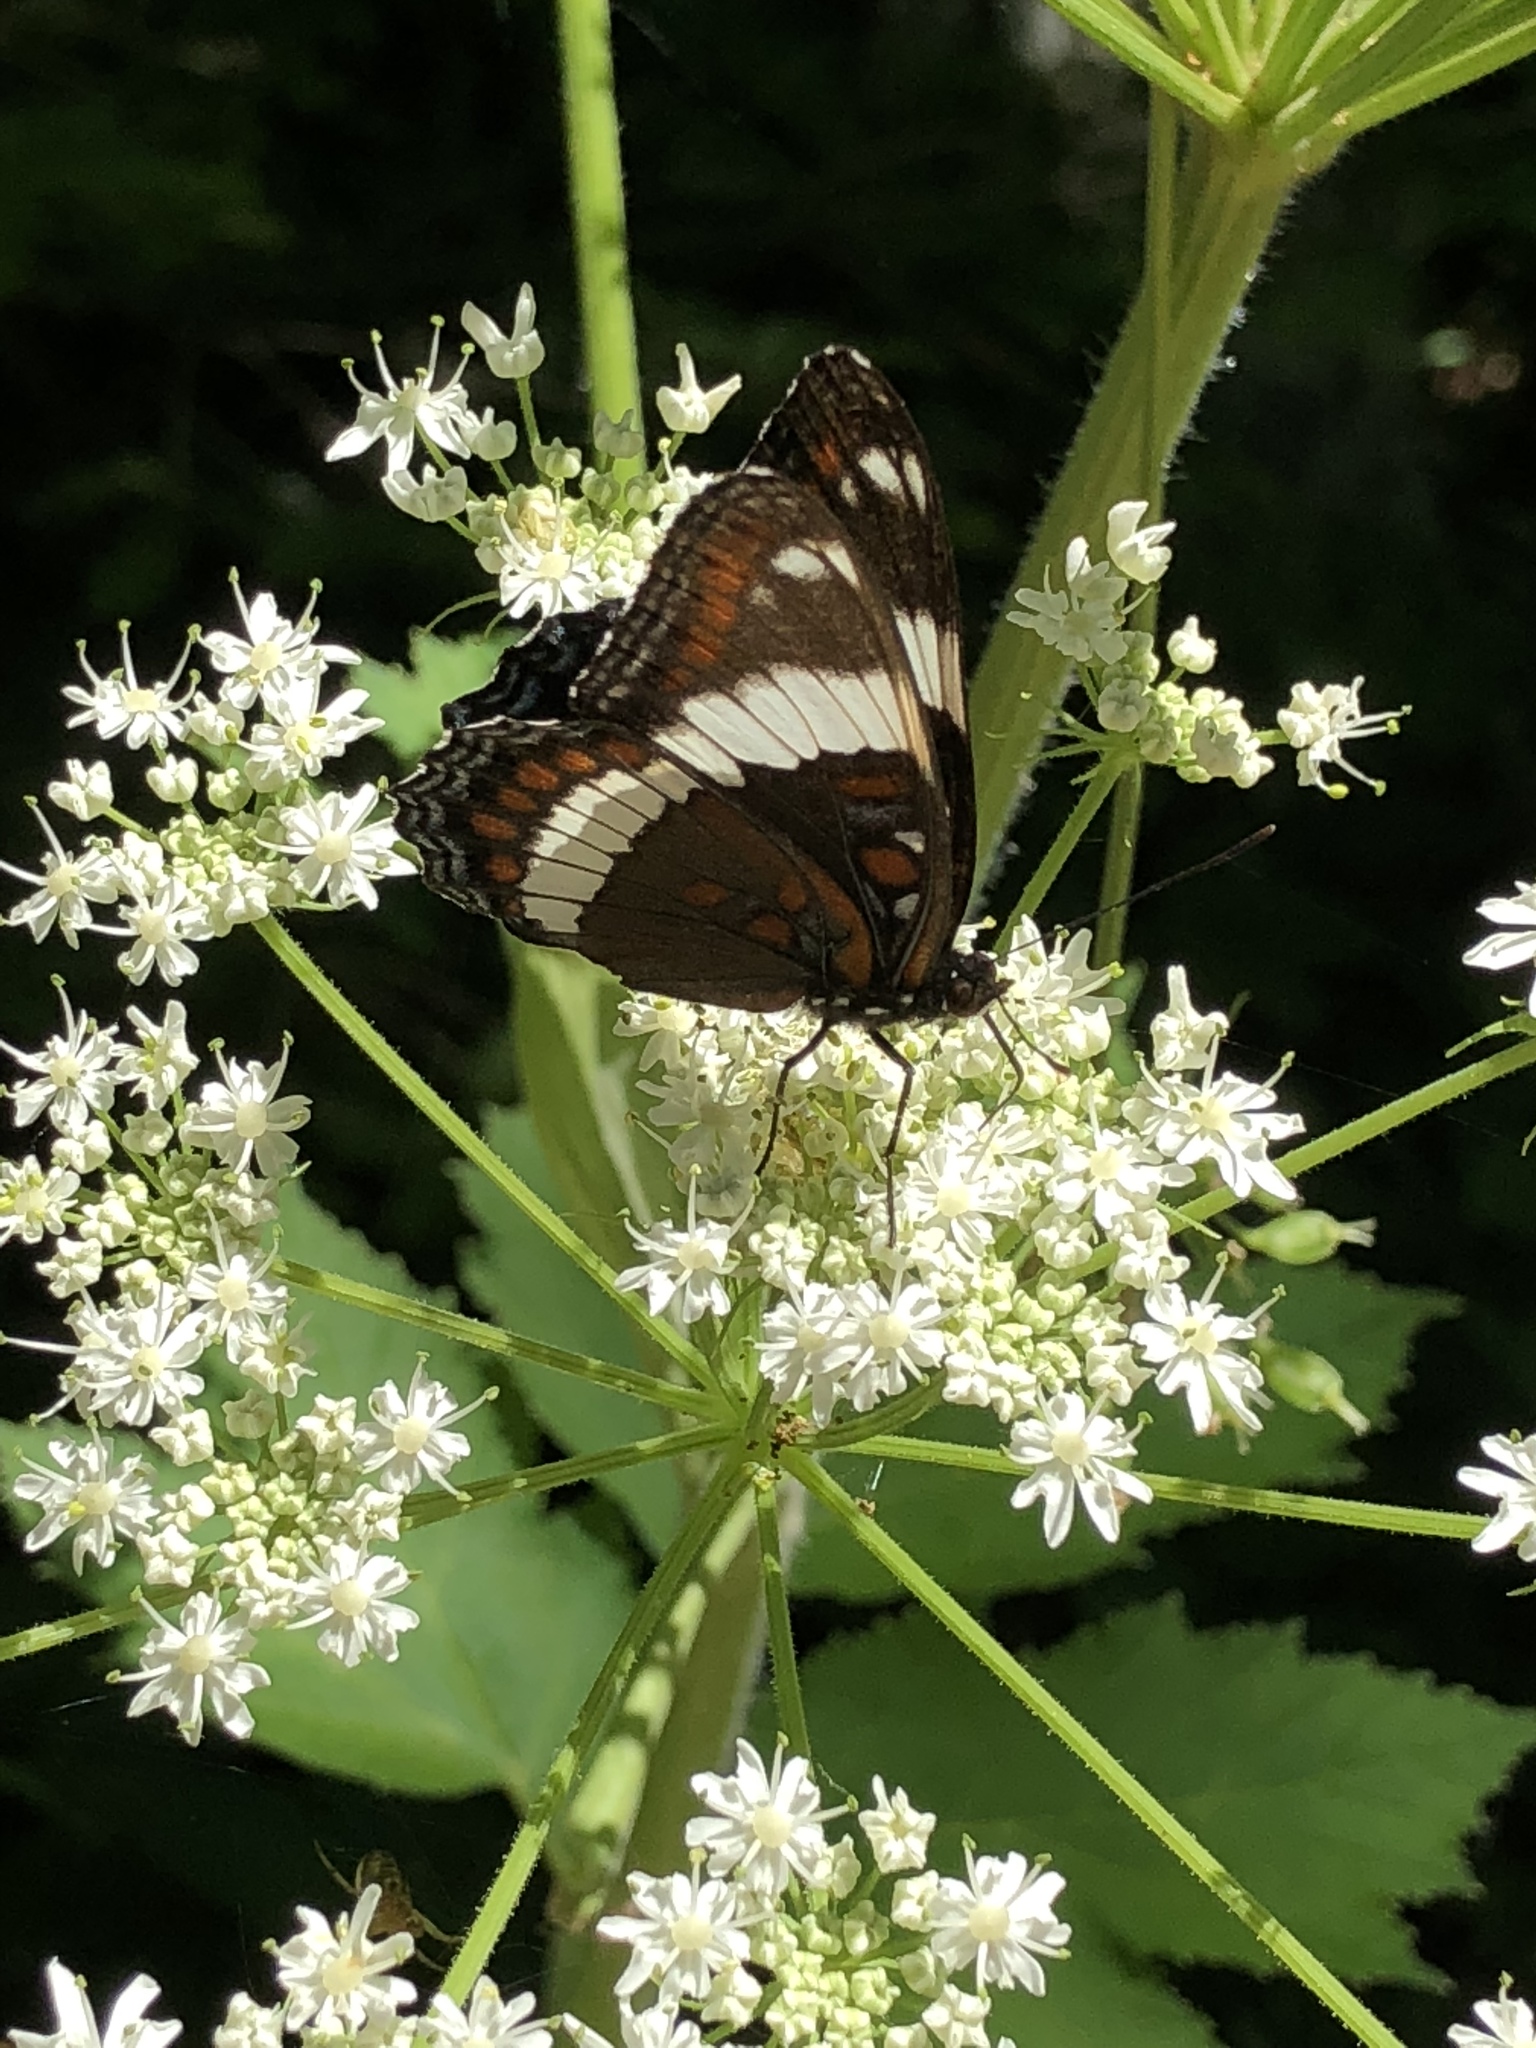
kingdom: Animalia
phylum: Arthropoda
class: Insecta
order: Lepidoptera
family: Nymphalidae
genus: Limenitis
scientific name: Limenitis arthemis
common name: Red-spotted admiral
